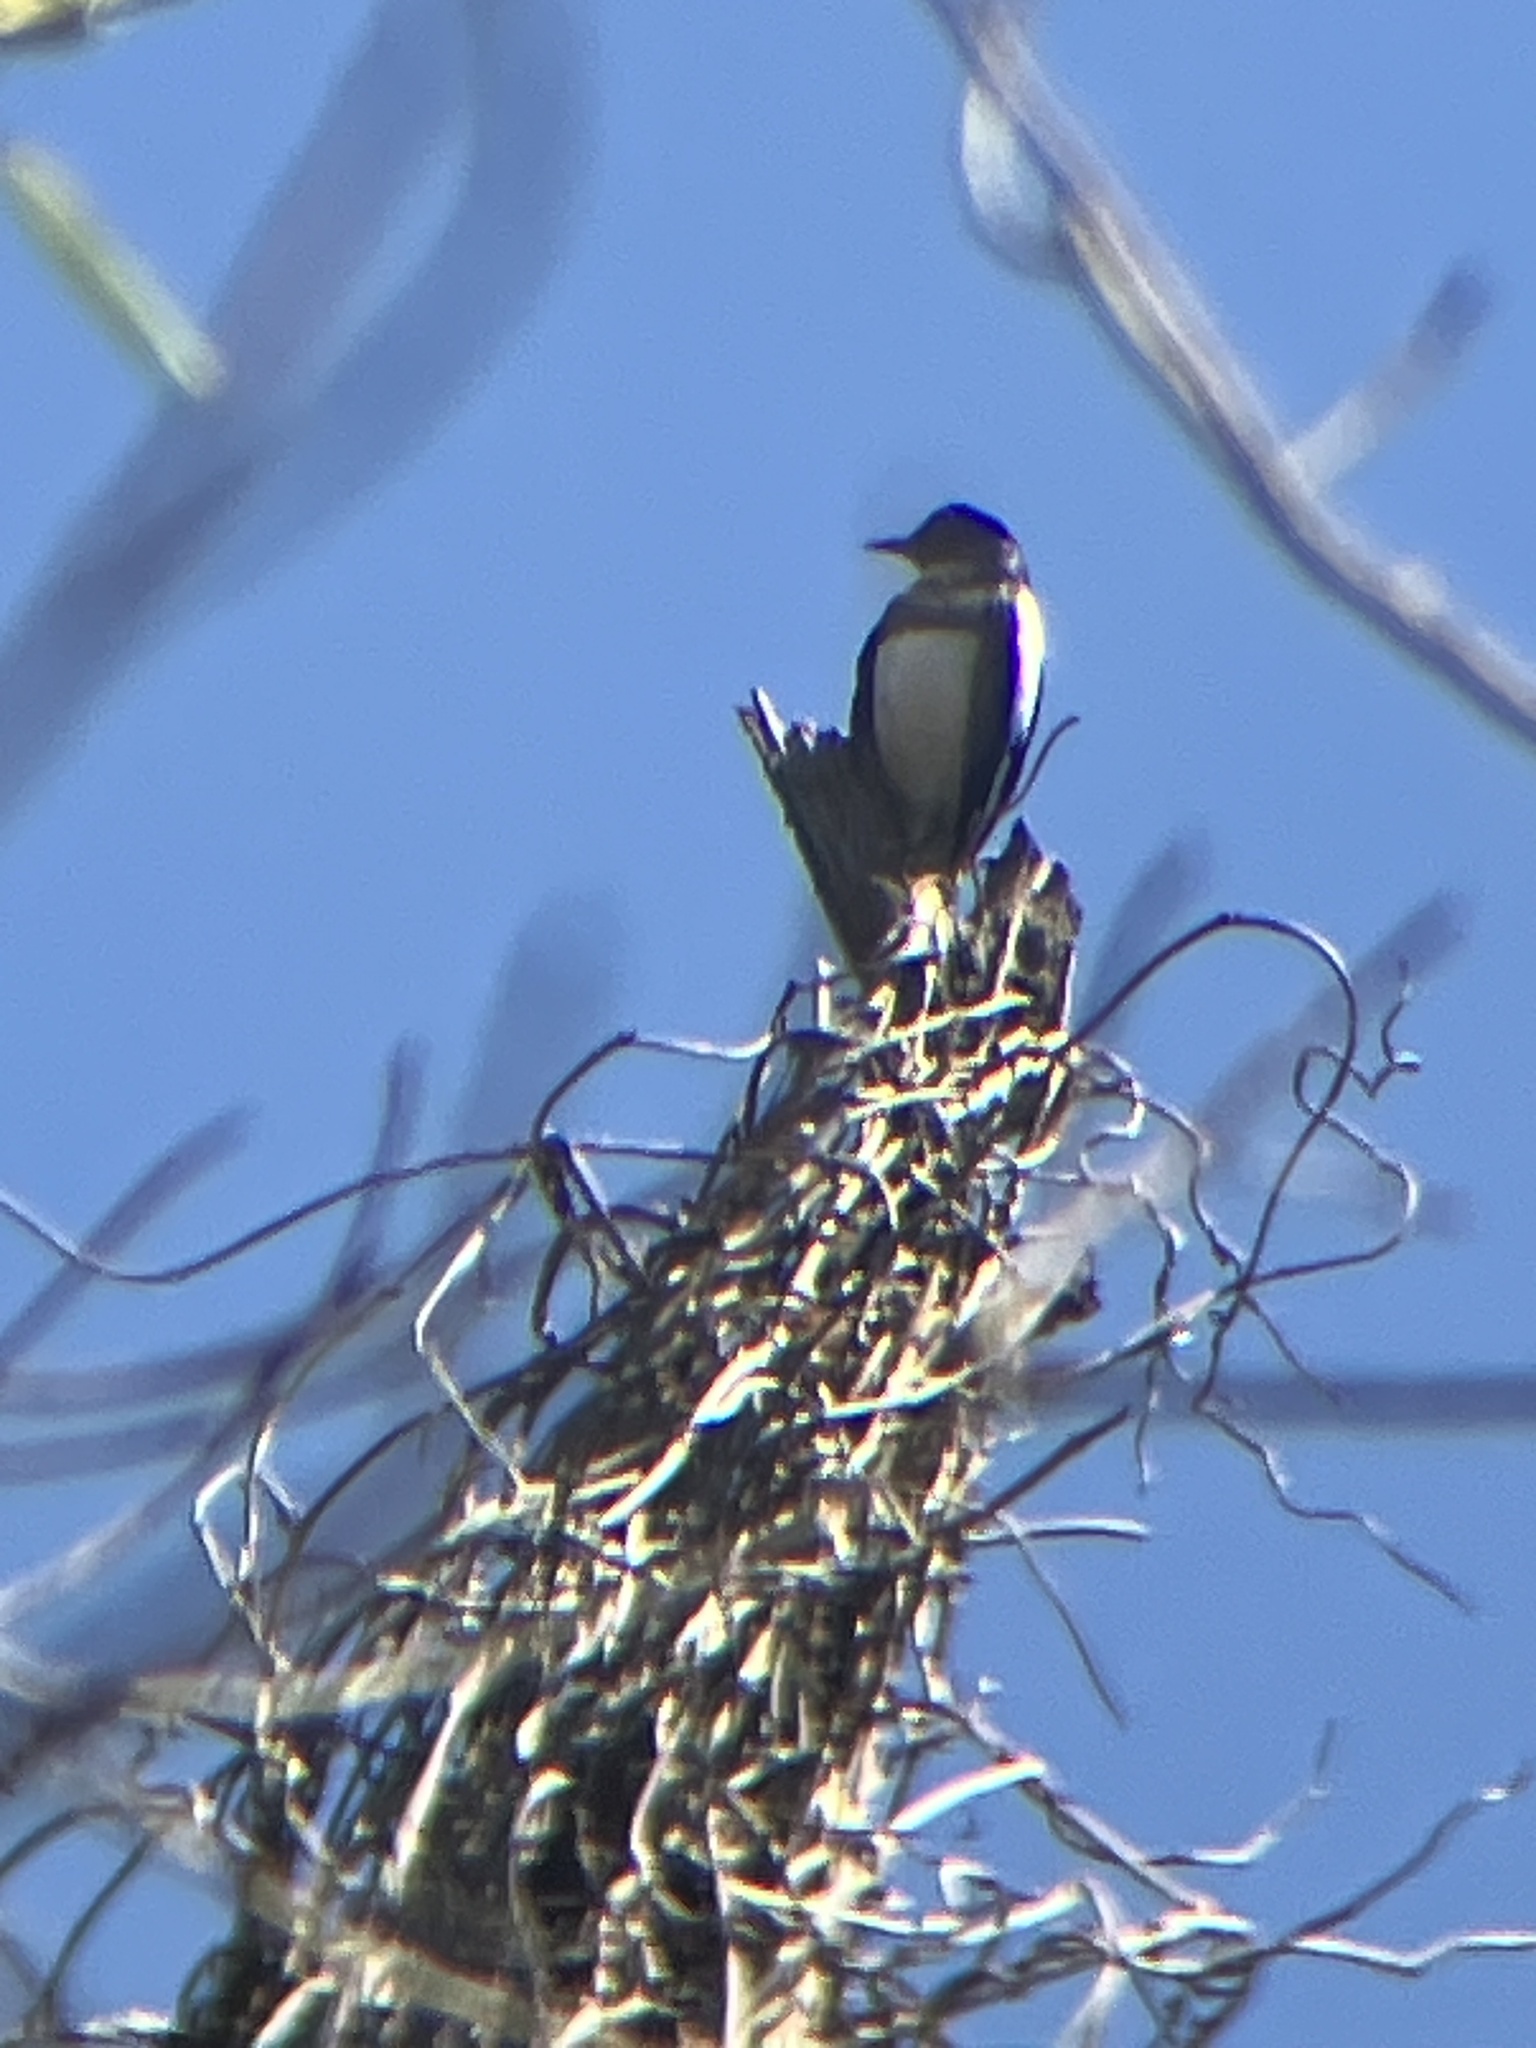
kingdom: Animalia
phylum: Chordata
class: Aves
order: Passeriformes
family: Muscicapidae
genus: Copsychus
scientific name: Copsychus saularis
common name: Oriental magpie-robin
